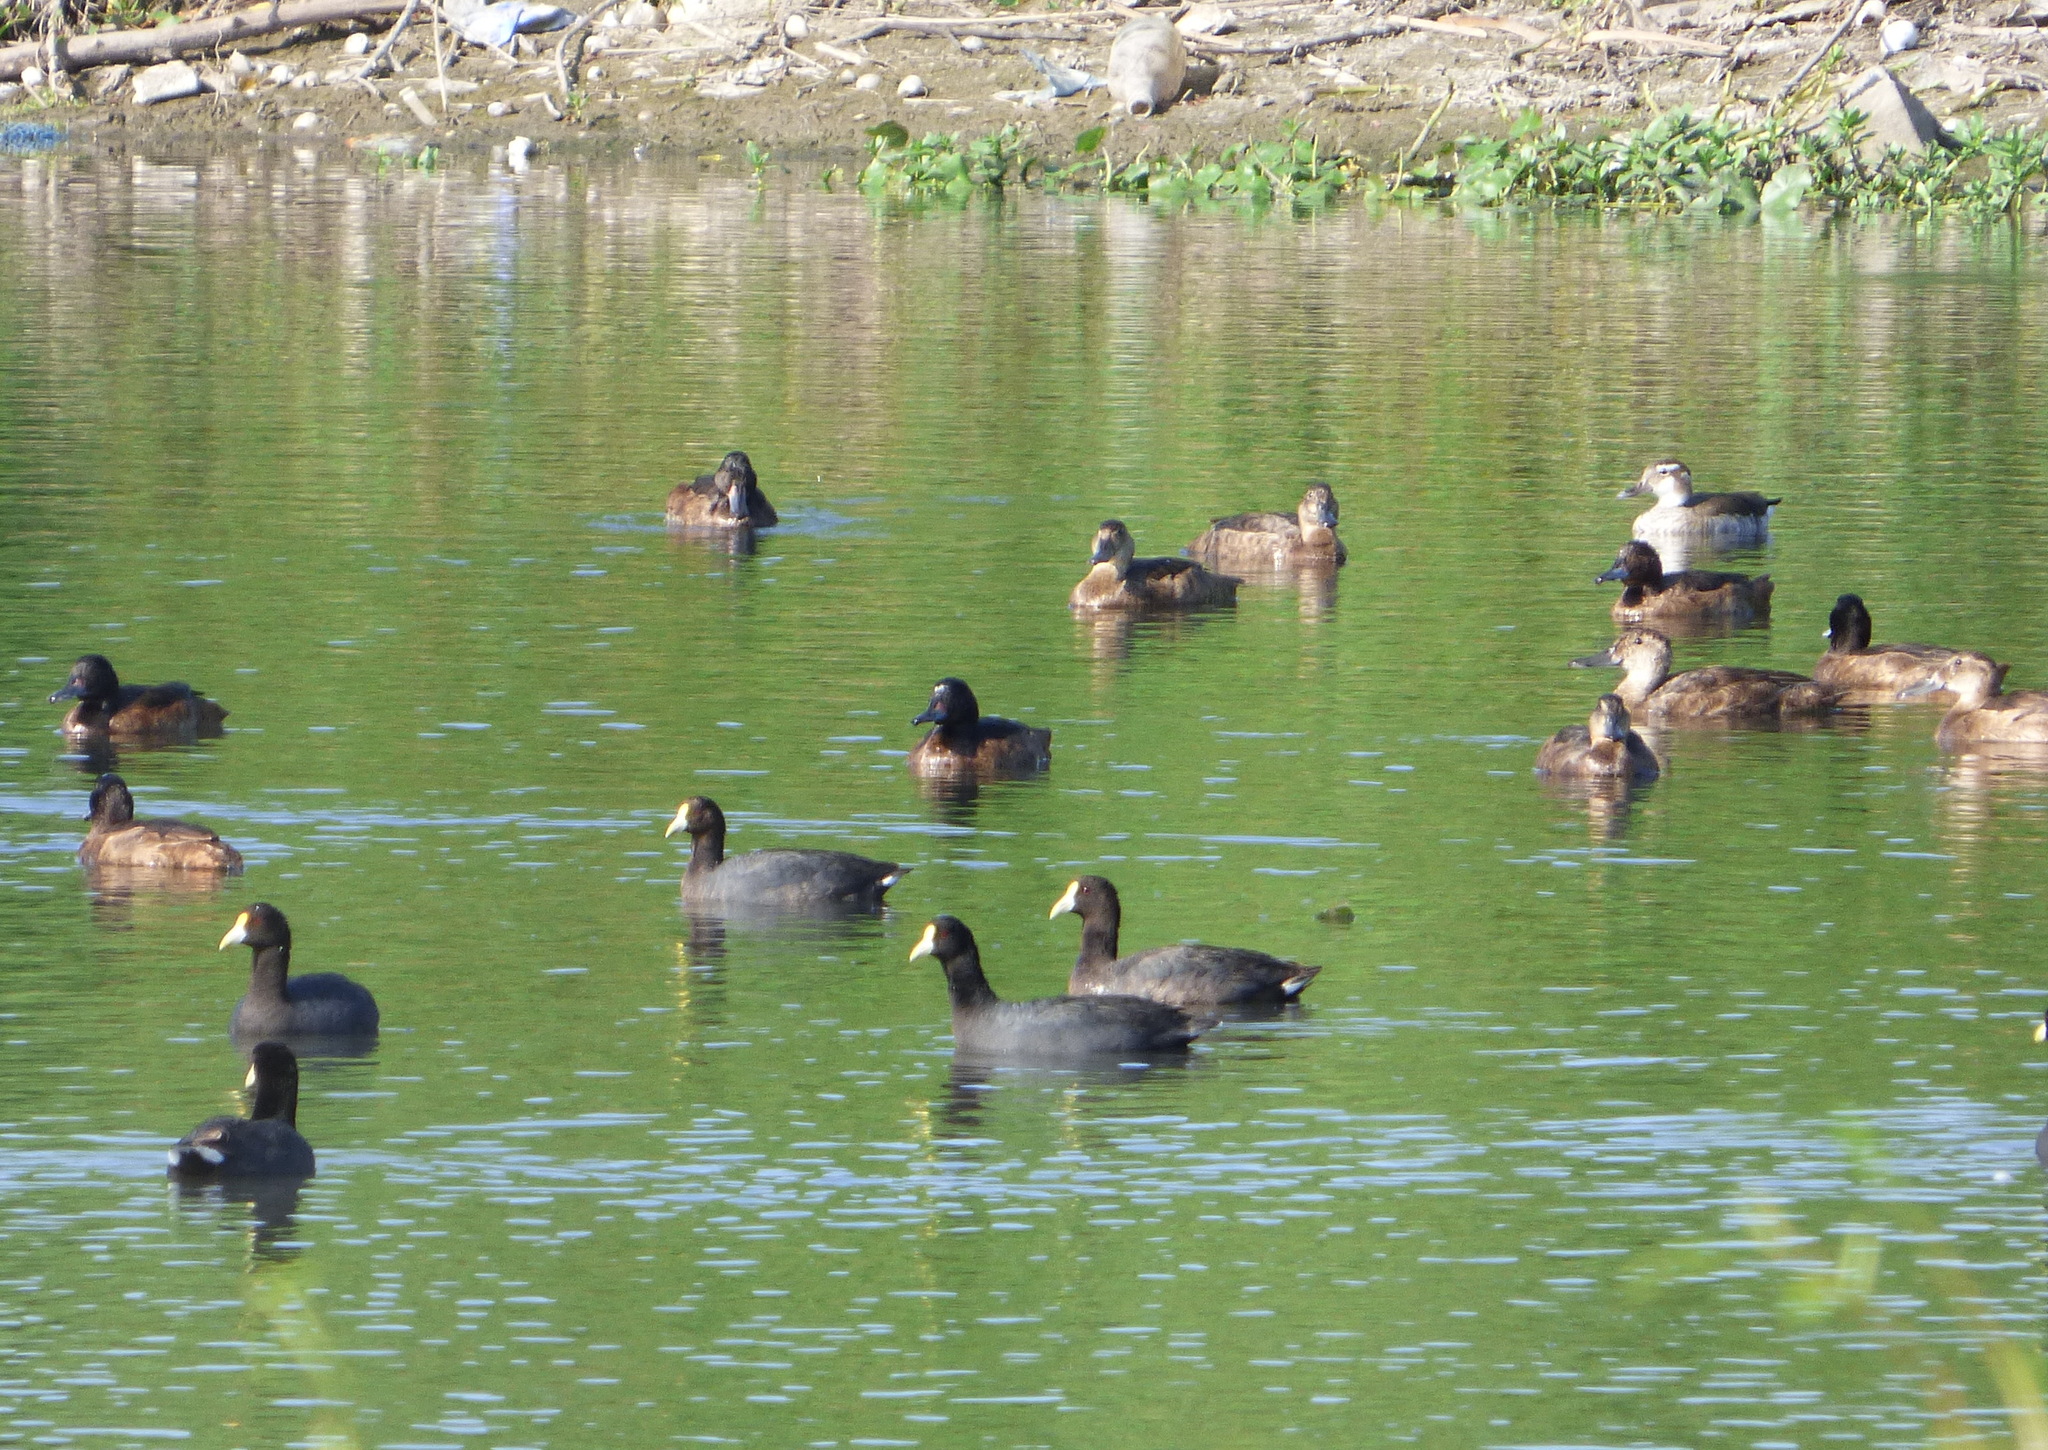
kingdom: Animalia
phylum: Chordata
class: Aves
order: Anseriformes
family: Anatidae
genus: Heteronetta
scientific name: Heteronetta atricapilla
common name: Black-headed duck
